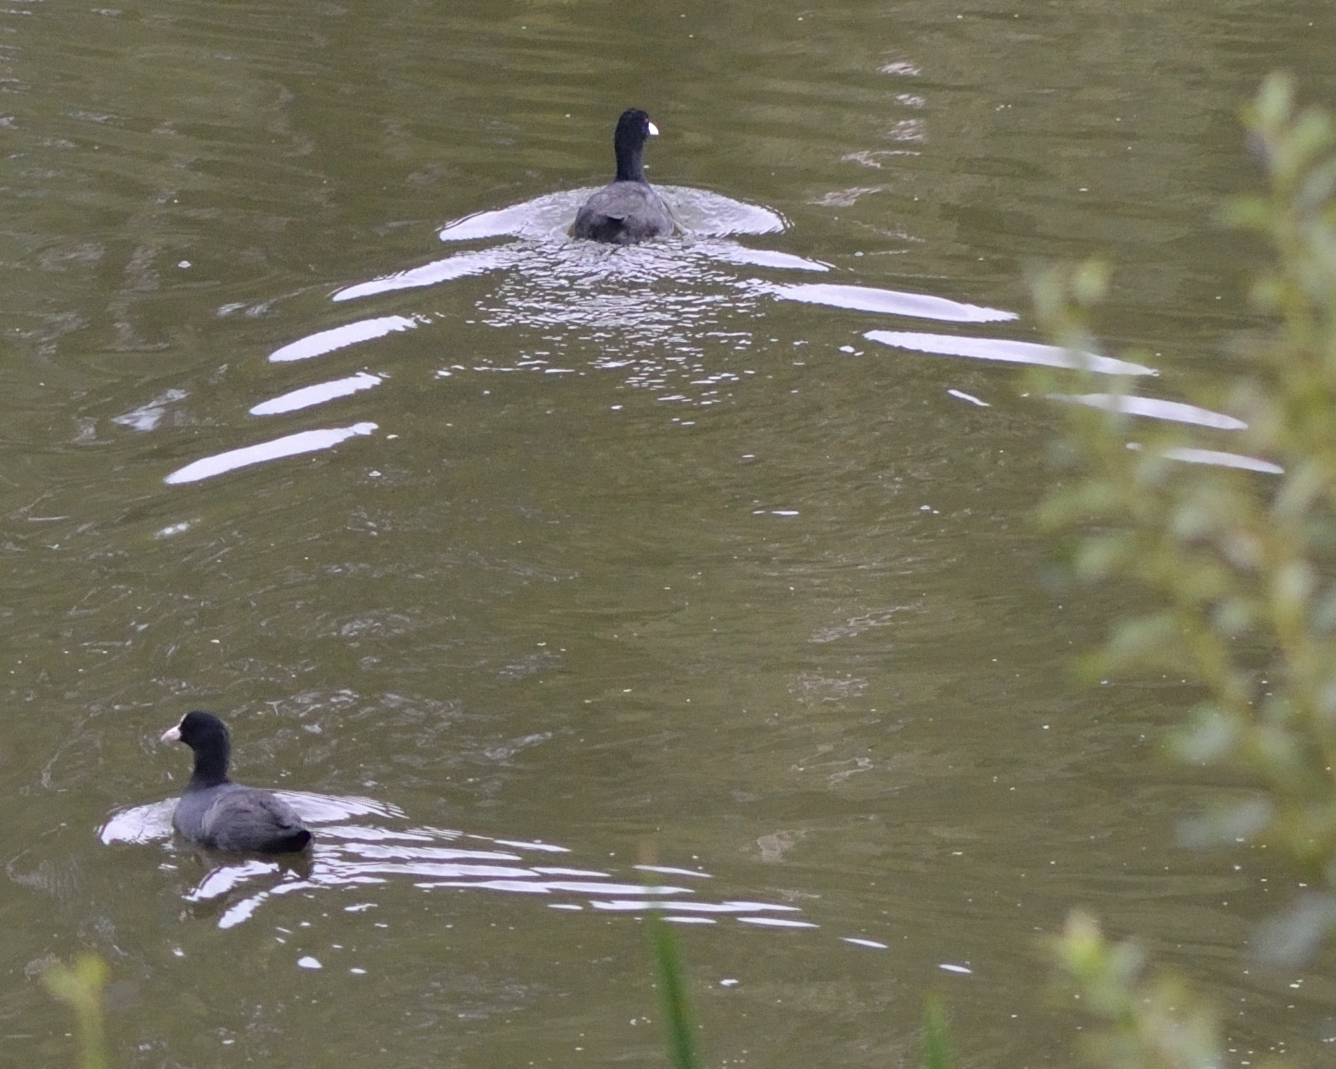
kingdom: Animalia
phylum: Chordata
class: Aves
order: Gruiformes
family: Rallidae
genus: Fulica
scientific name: Fulica atra
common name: Eurasian coot
